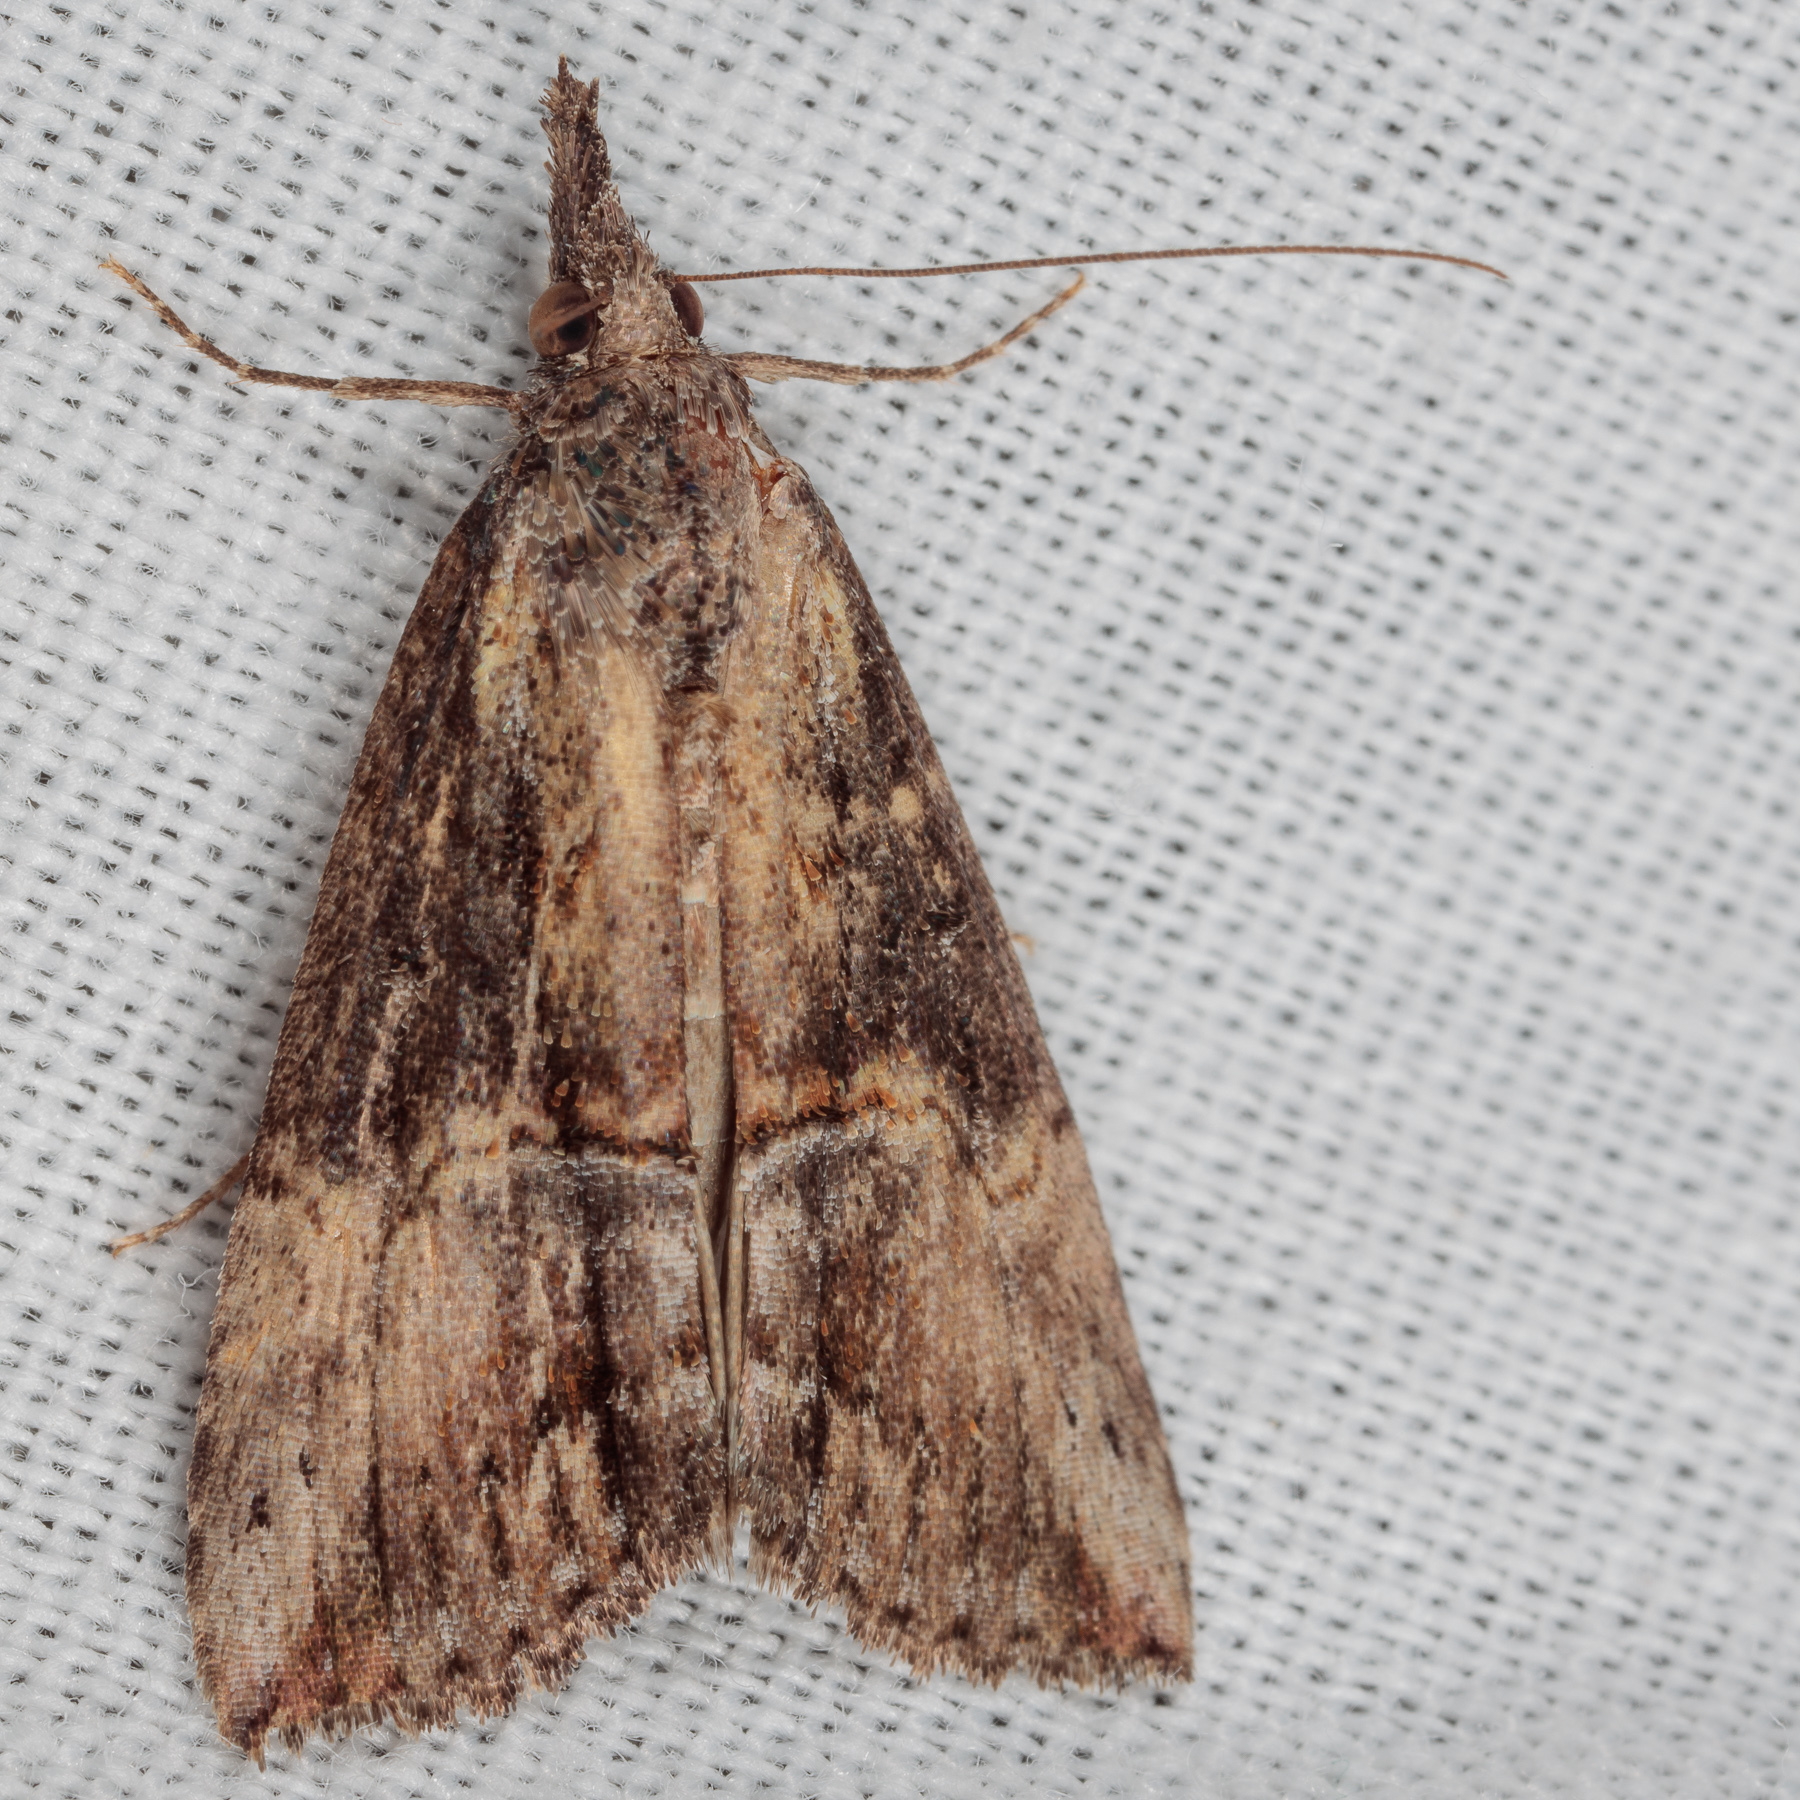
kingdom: Animalia
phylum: Arthropoda
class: Insecta
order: Lepidoptera
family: Erebidae
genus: Hypena
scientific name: Hypena scabra
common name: Green cloverworm
